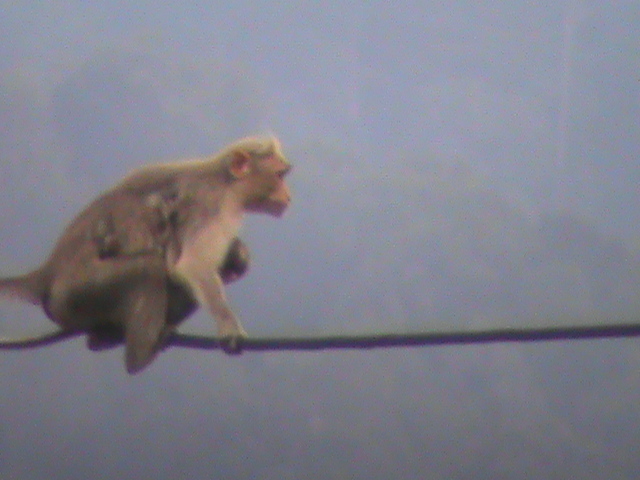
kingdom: Animalia
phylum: Chordata
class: Mammalia
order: Primates
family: Cercopithecidae
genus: Macaca
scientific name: Macaca radiata
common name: Bonnet macaque
